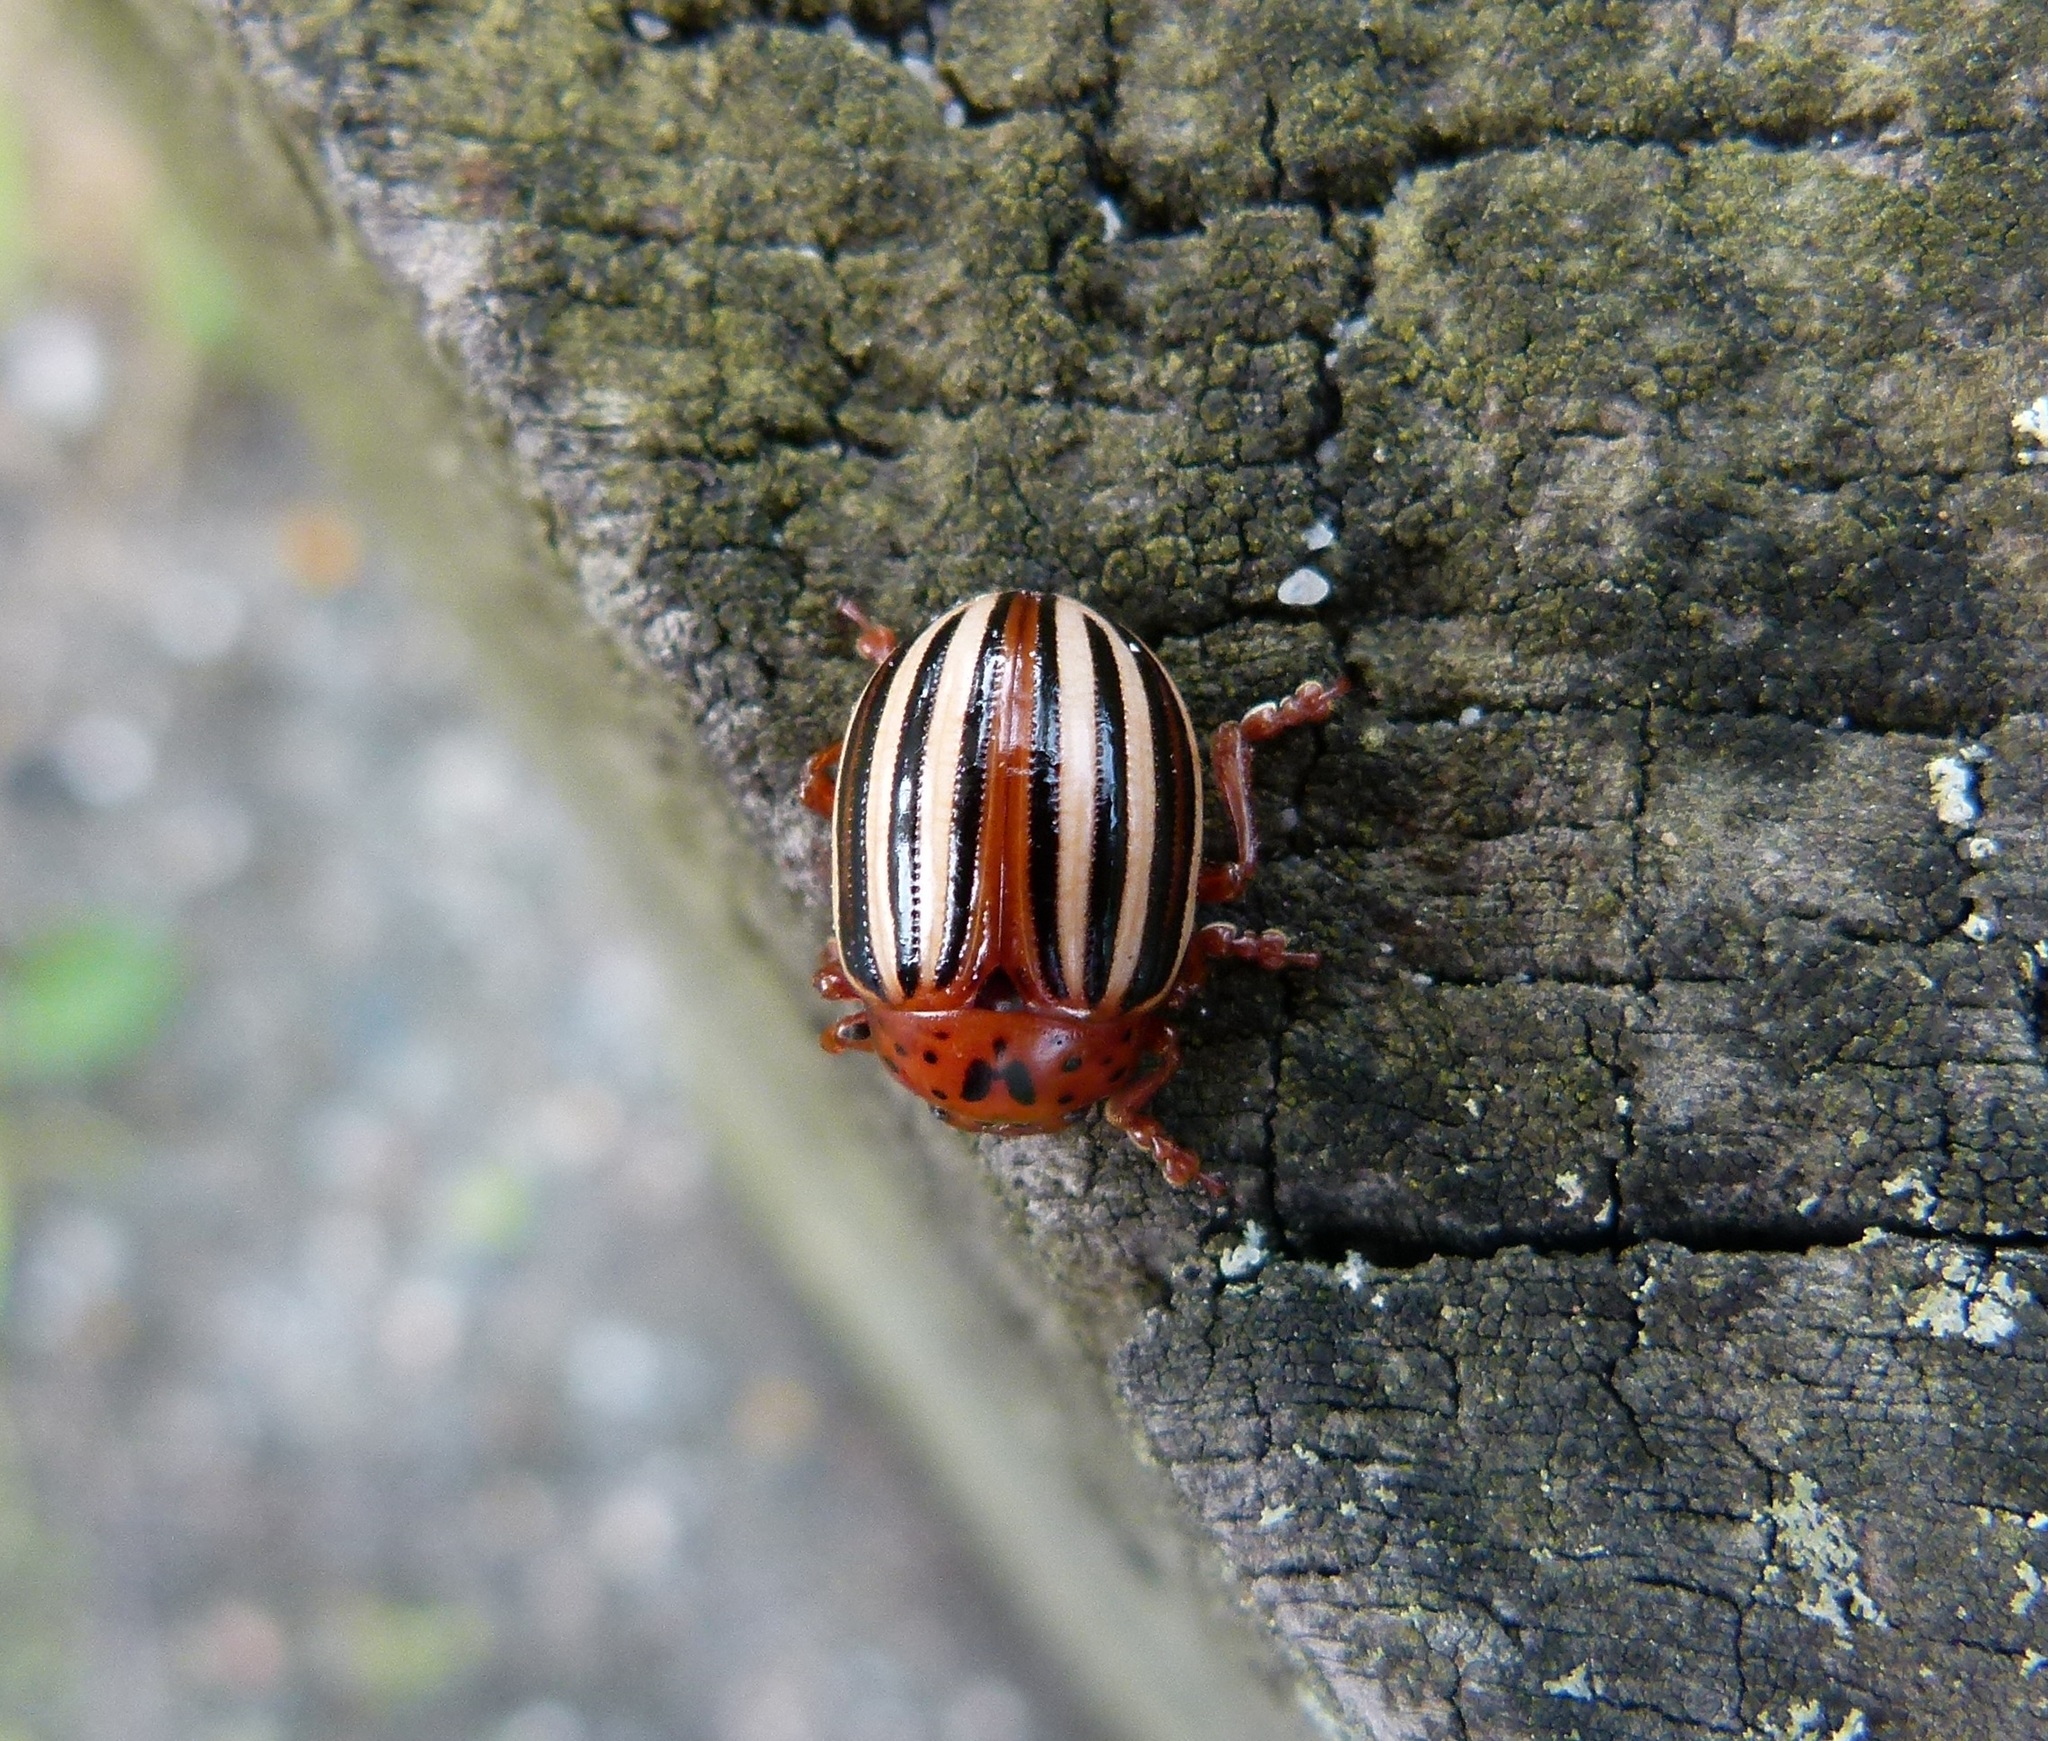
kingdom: Animalia
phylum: Arthropoda
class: Insecta
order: Coleoptera
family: Chrysomelidae
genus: Leptinotarsa
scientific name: Leptinotarsa juncta
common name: False potato beetle
